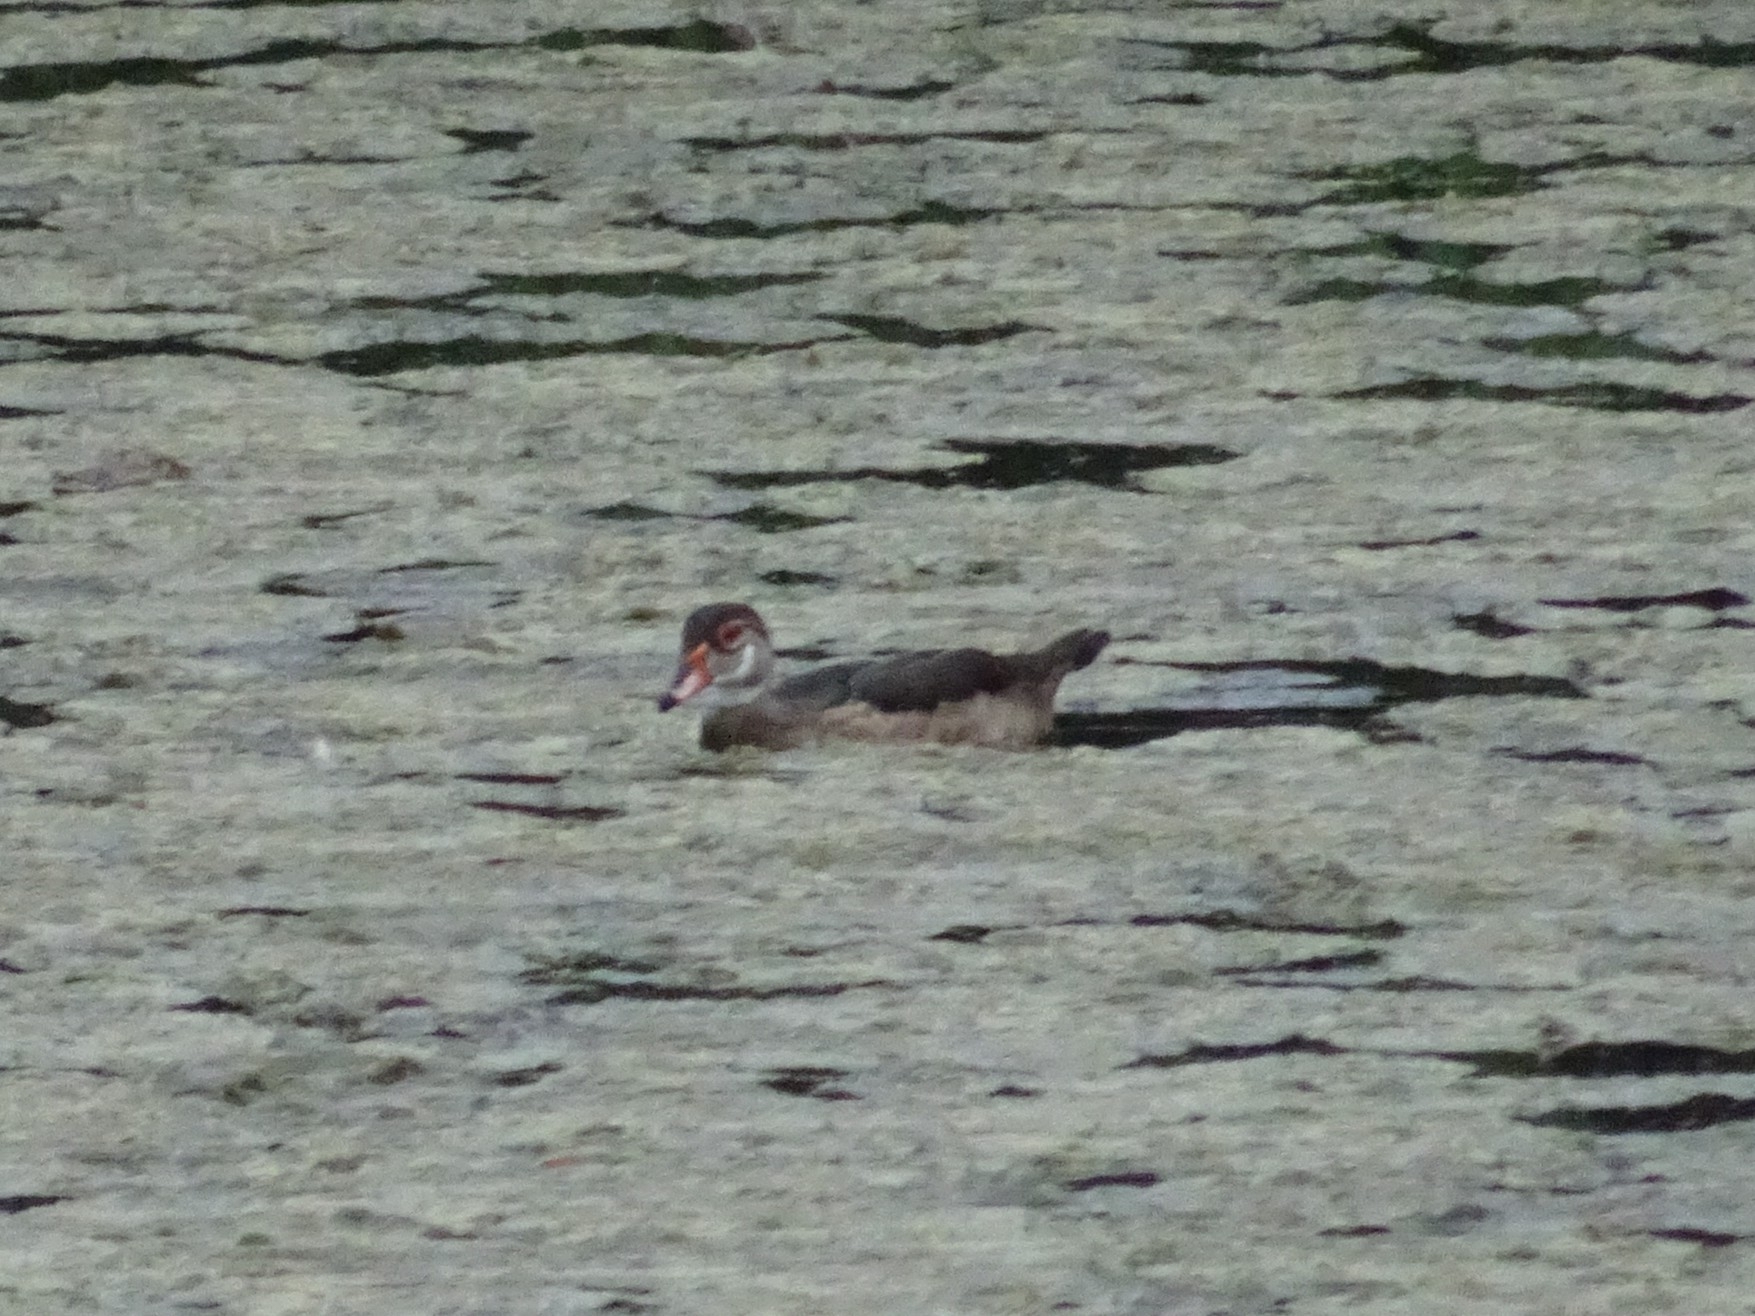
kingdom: Animalia
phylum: Chordata
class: Aves
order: Anseriformes
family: Anatidae
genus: Aix
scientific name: Aix sponsa
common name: Wood duck
